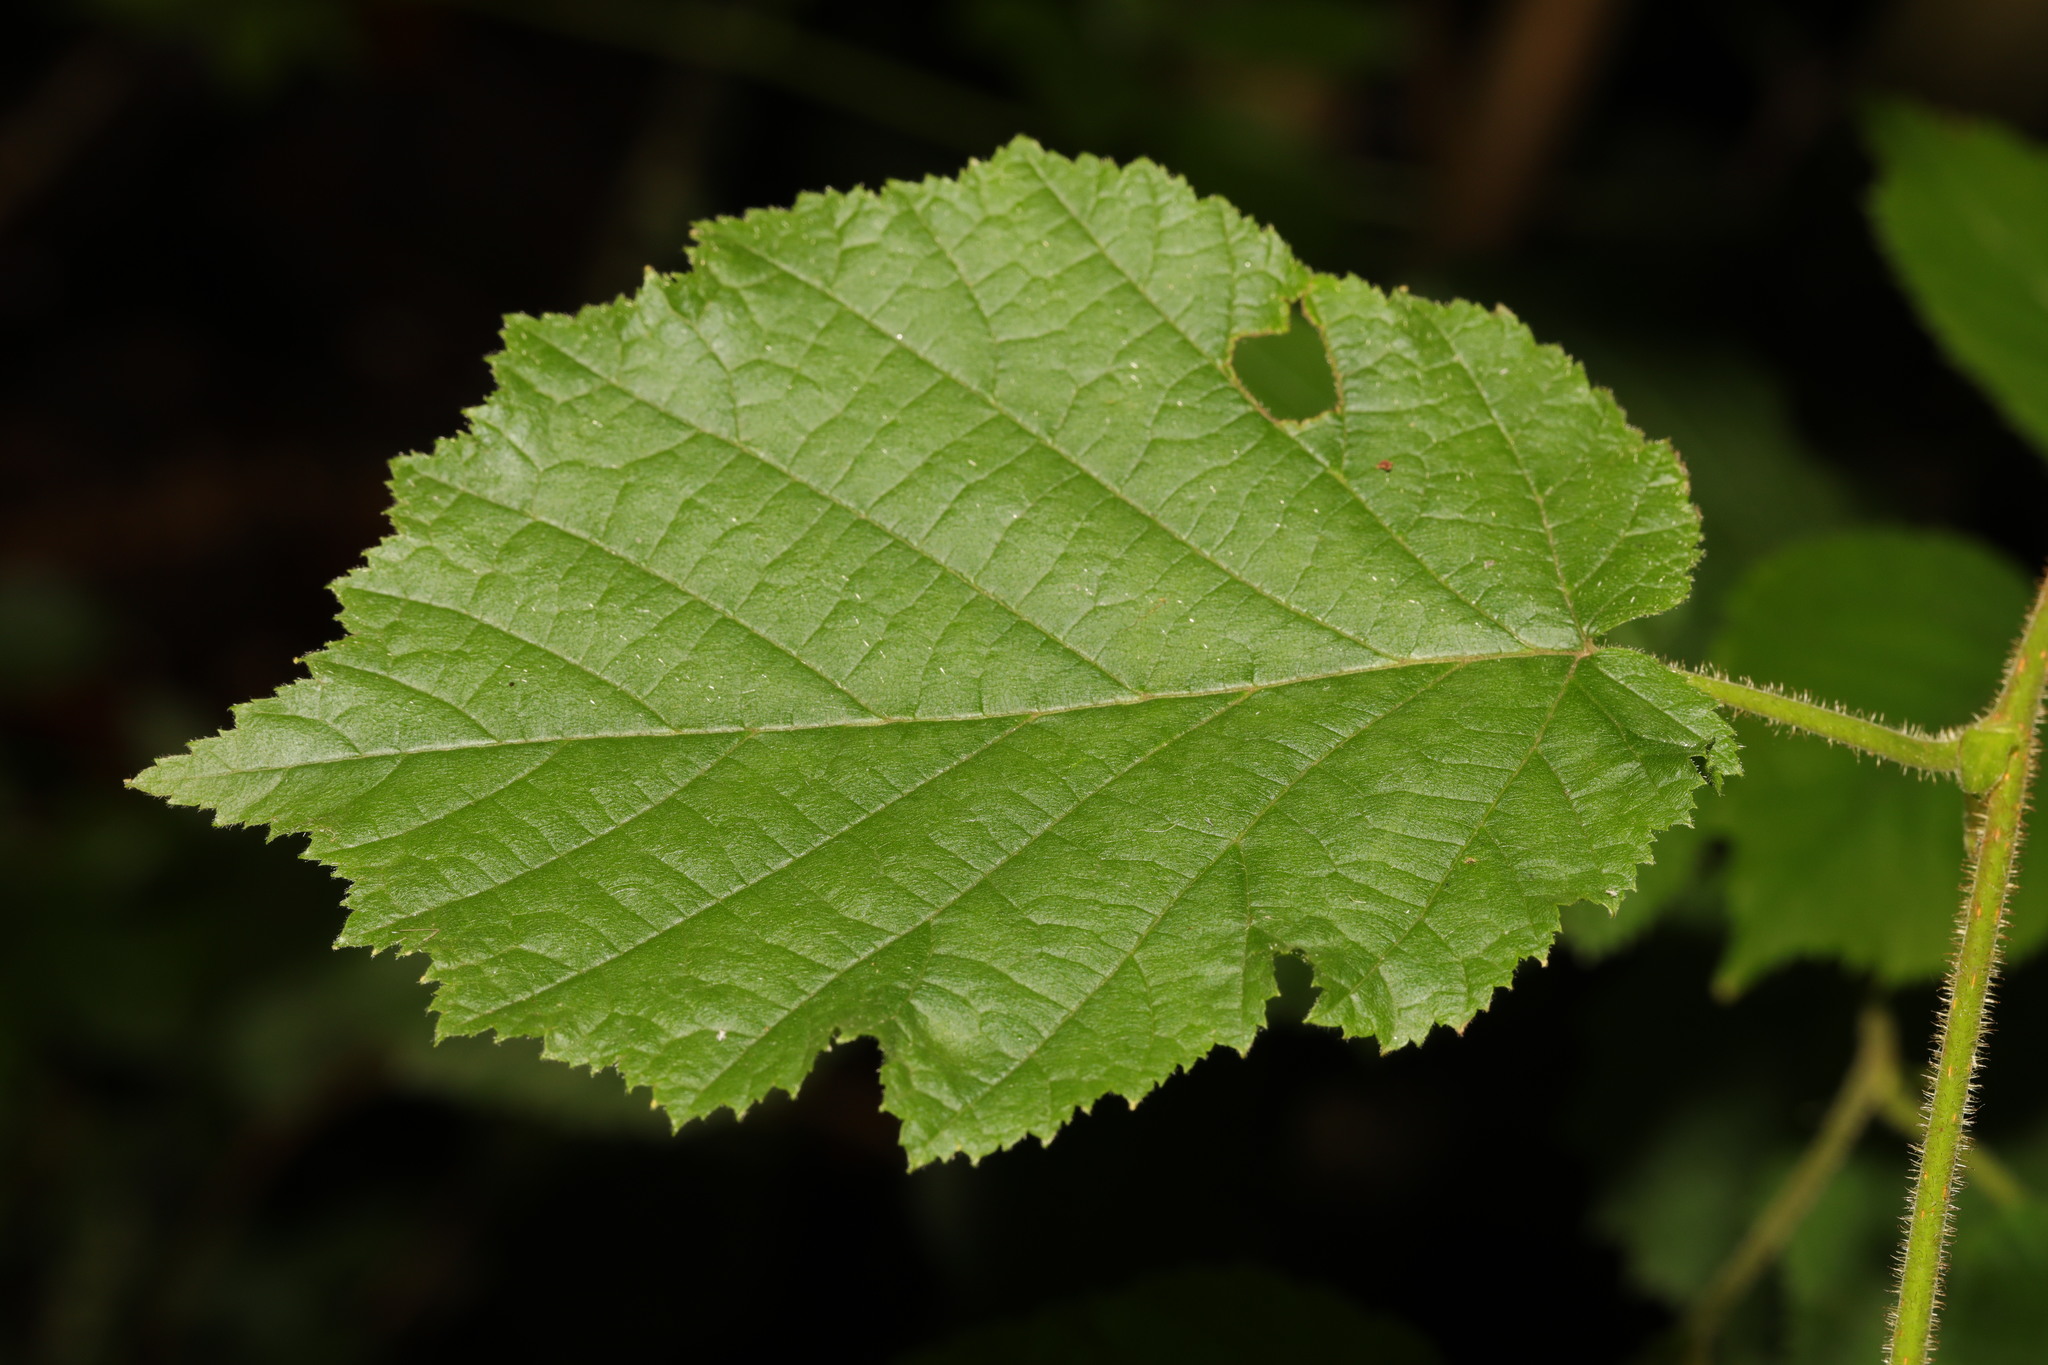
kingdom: Plantae
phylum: Tracheophyta
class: Magnoliopsida
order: Fagales
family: Betulaceae
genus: Corylus
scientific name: Corylus avellana
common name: European hazel
